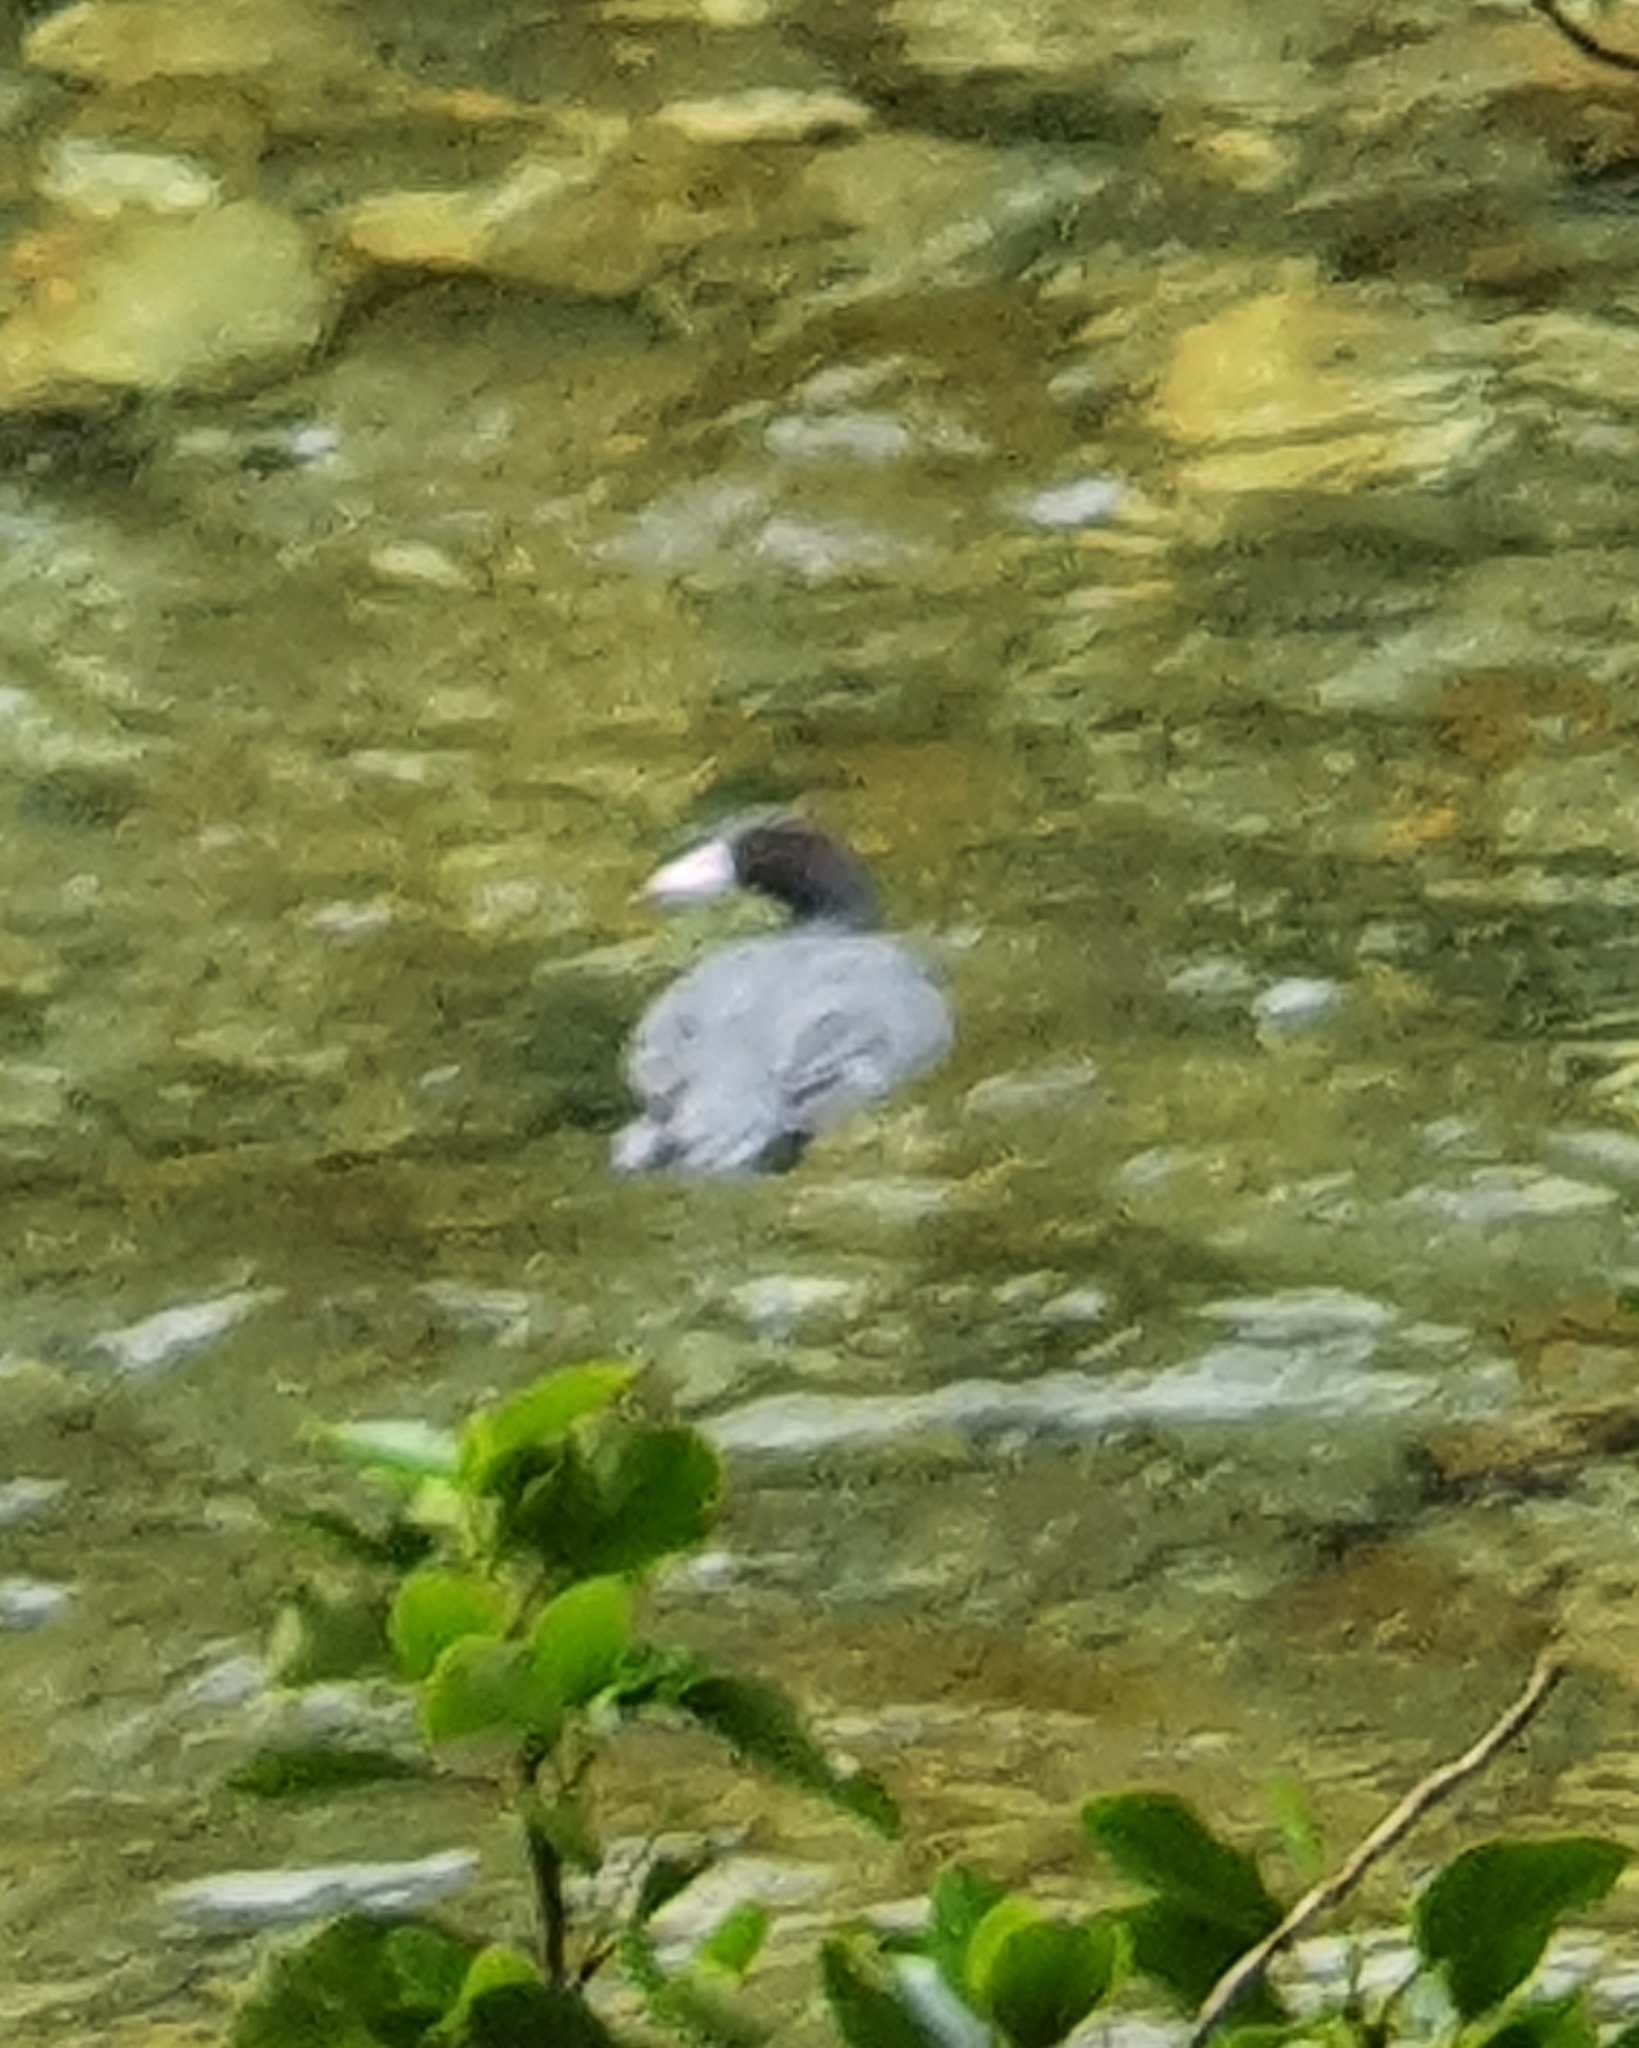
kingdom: Animalia
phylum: Chordata
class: Aves
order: Anseriformes
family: Anatidae
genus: Hymenolaimus
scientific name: Hymenolaimus malacorhynchos
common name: Blue duck
